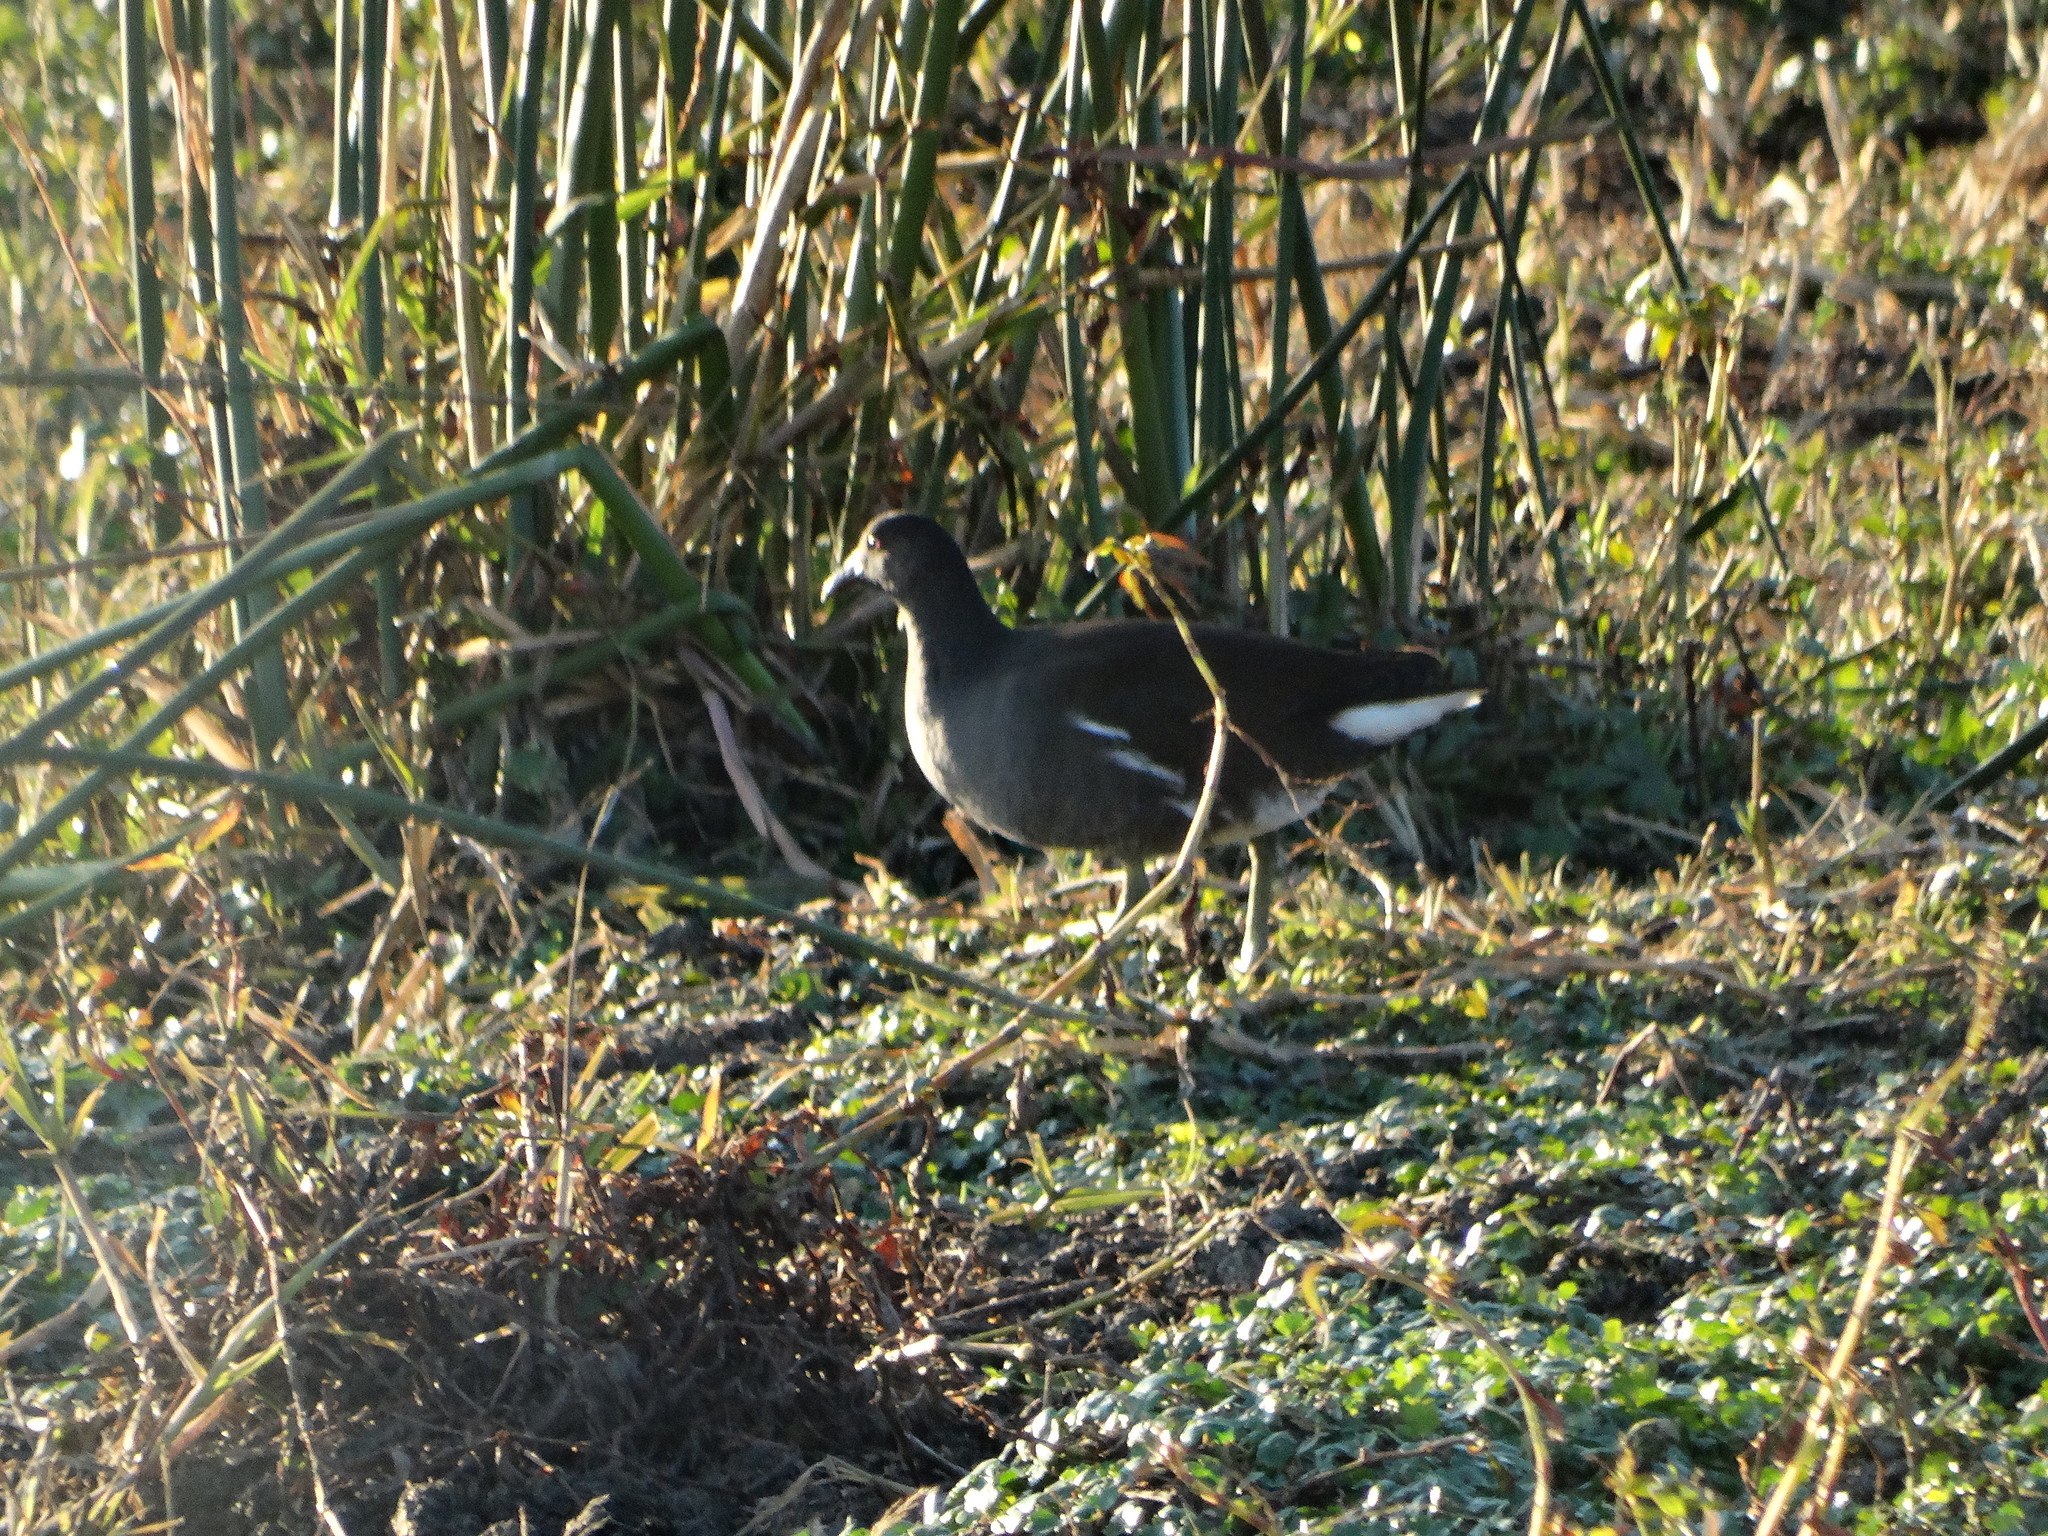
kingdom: Animalia
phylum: Chordata
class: Aves
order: Gruiformes
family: Rallidae
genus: Gallinula
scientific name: Gallinula chloropus
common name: Common moorhen
